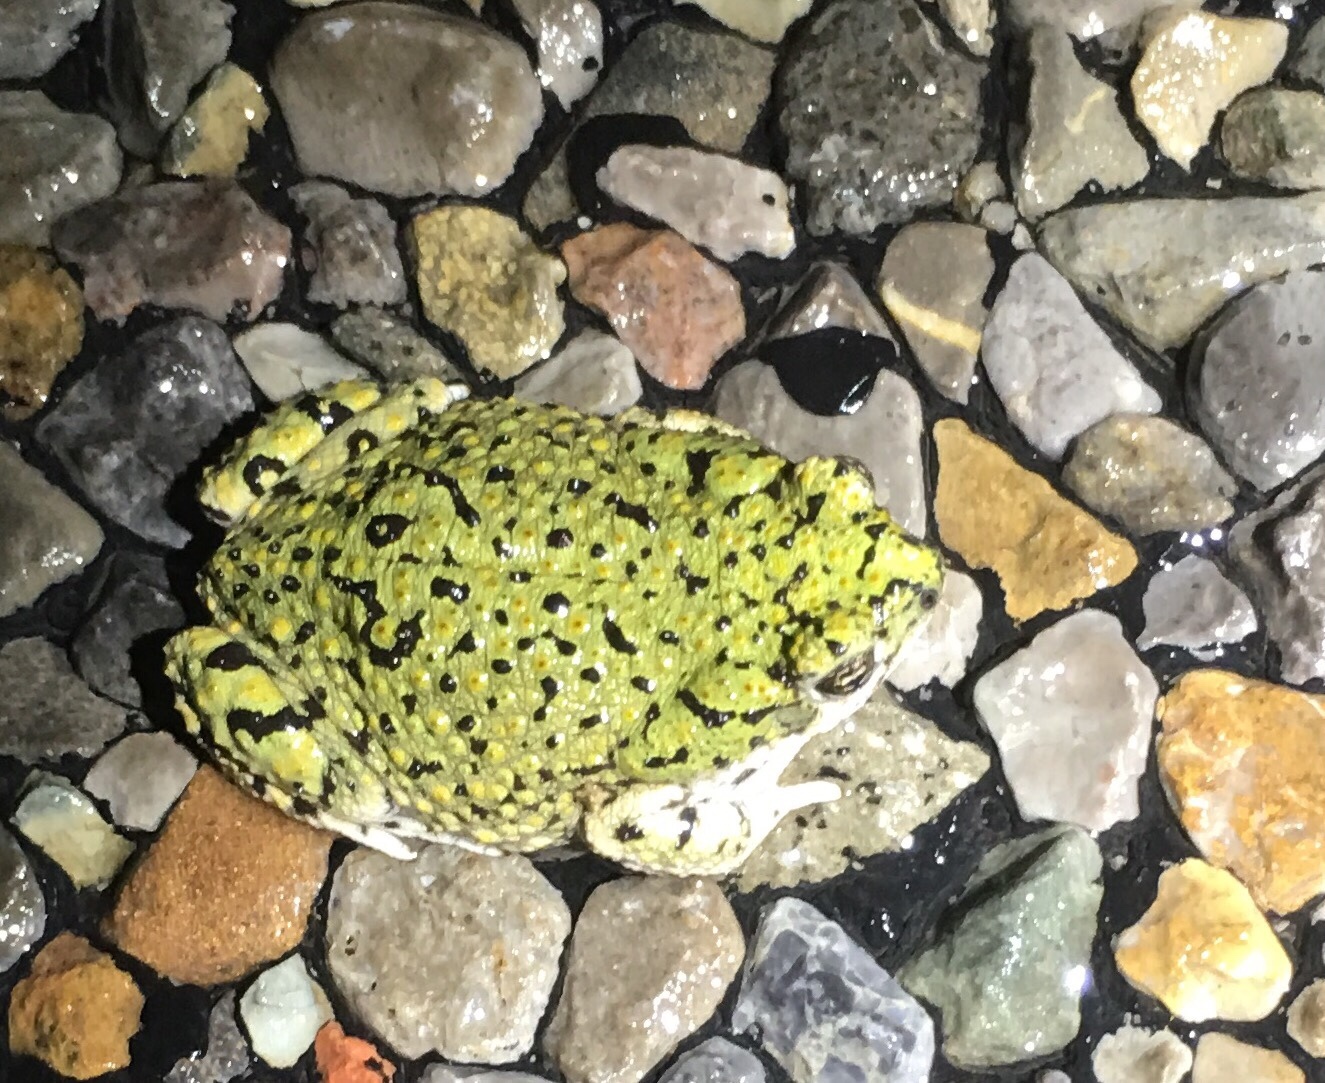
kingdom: Animalia
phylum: Chordata
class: Amphibia
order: Anura
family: Bufonidae
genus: Anaxyrus
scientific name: Anaxyrus debilis
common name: Green toad
